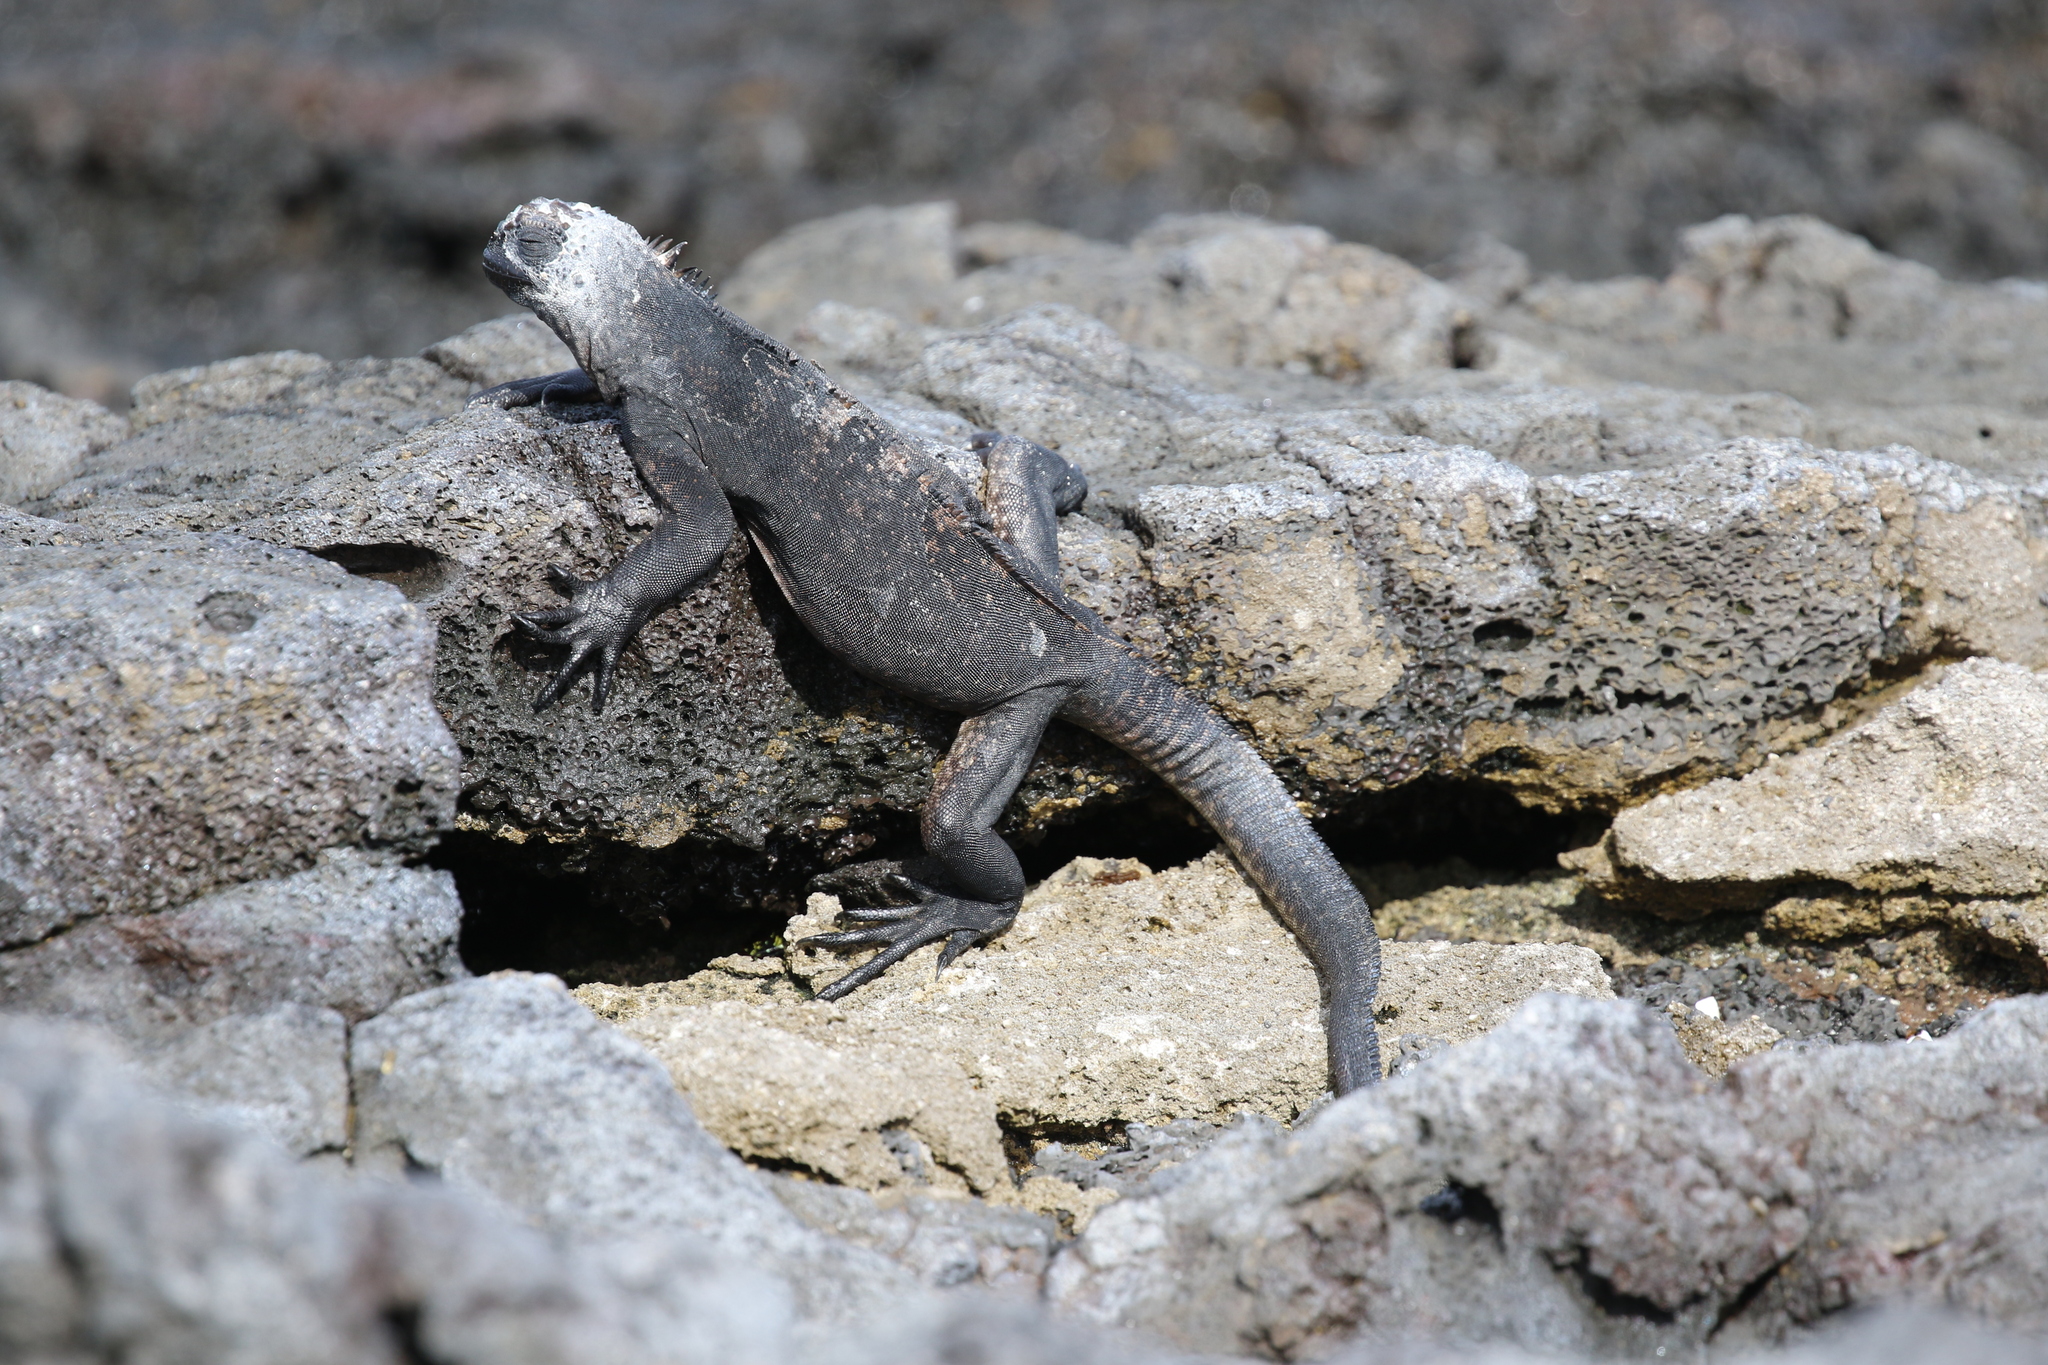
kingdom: Animalia
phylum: Chordata
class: Squamata
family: Iguanidae
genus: Amblyrhynchus
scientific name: Amblyrhynchus cristatus
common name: Marine iguana
